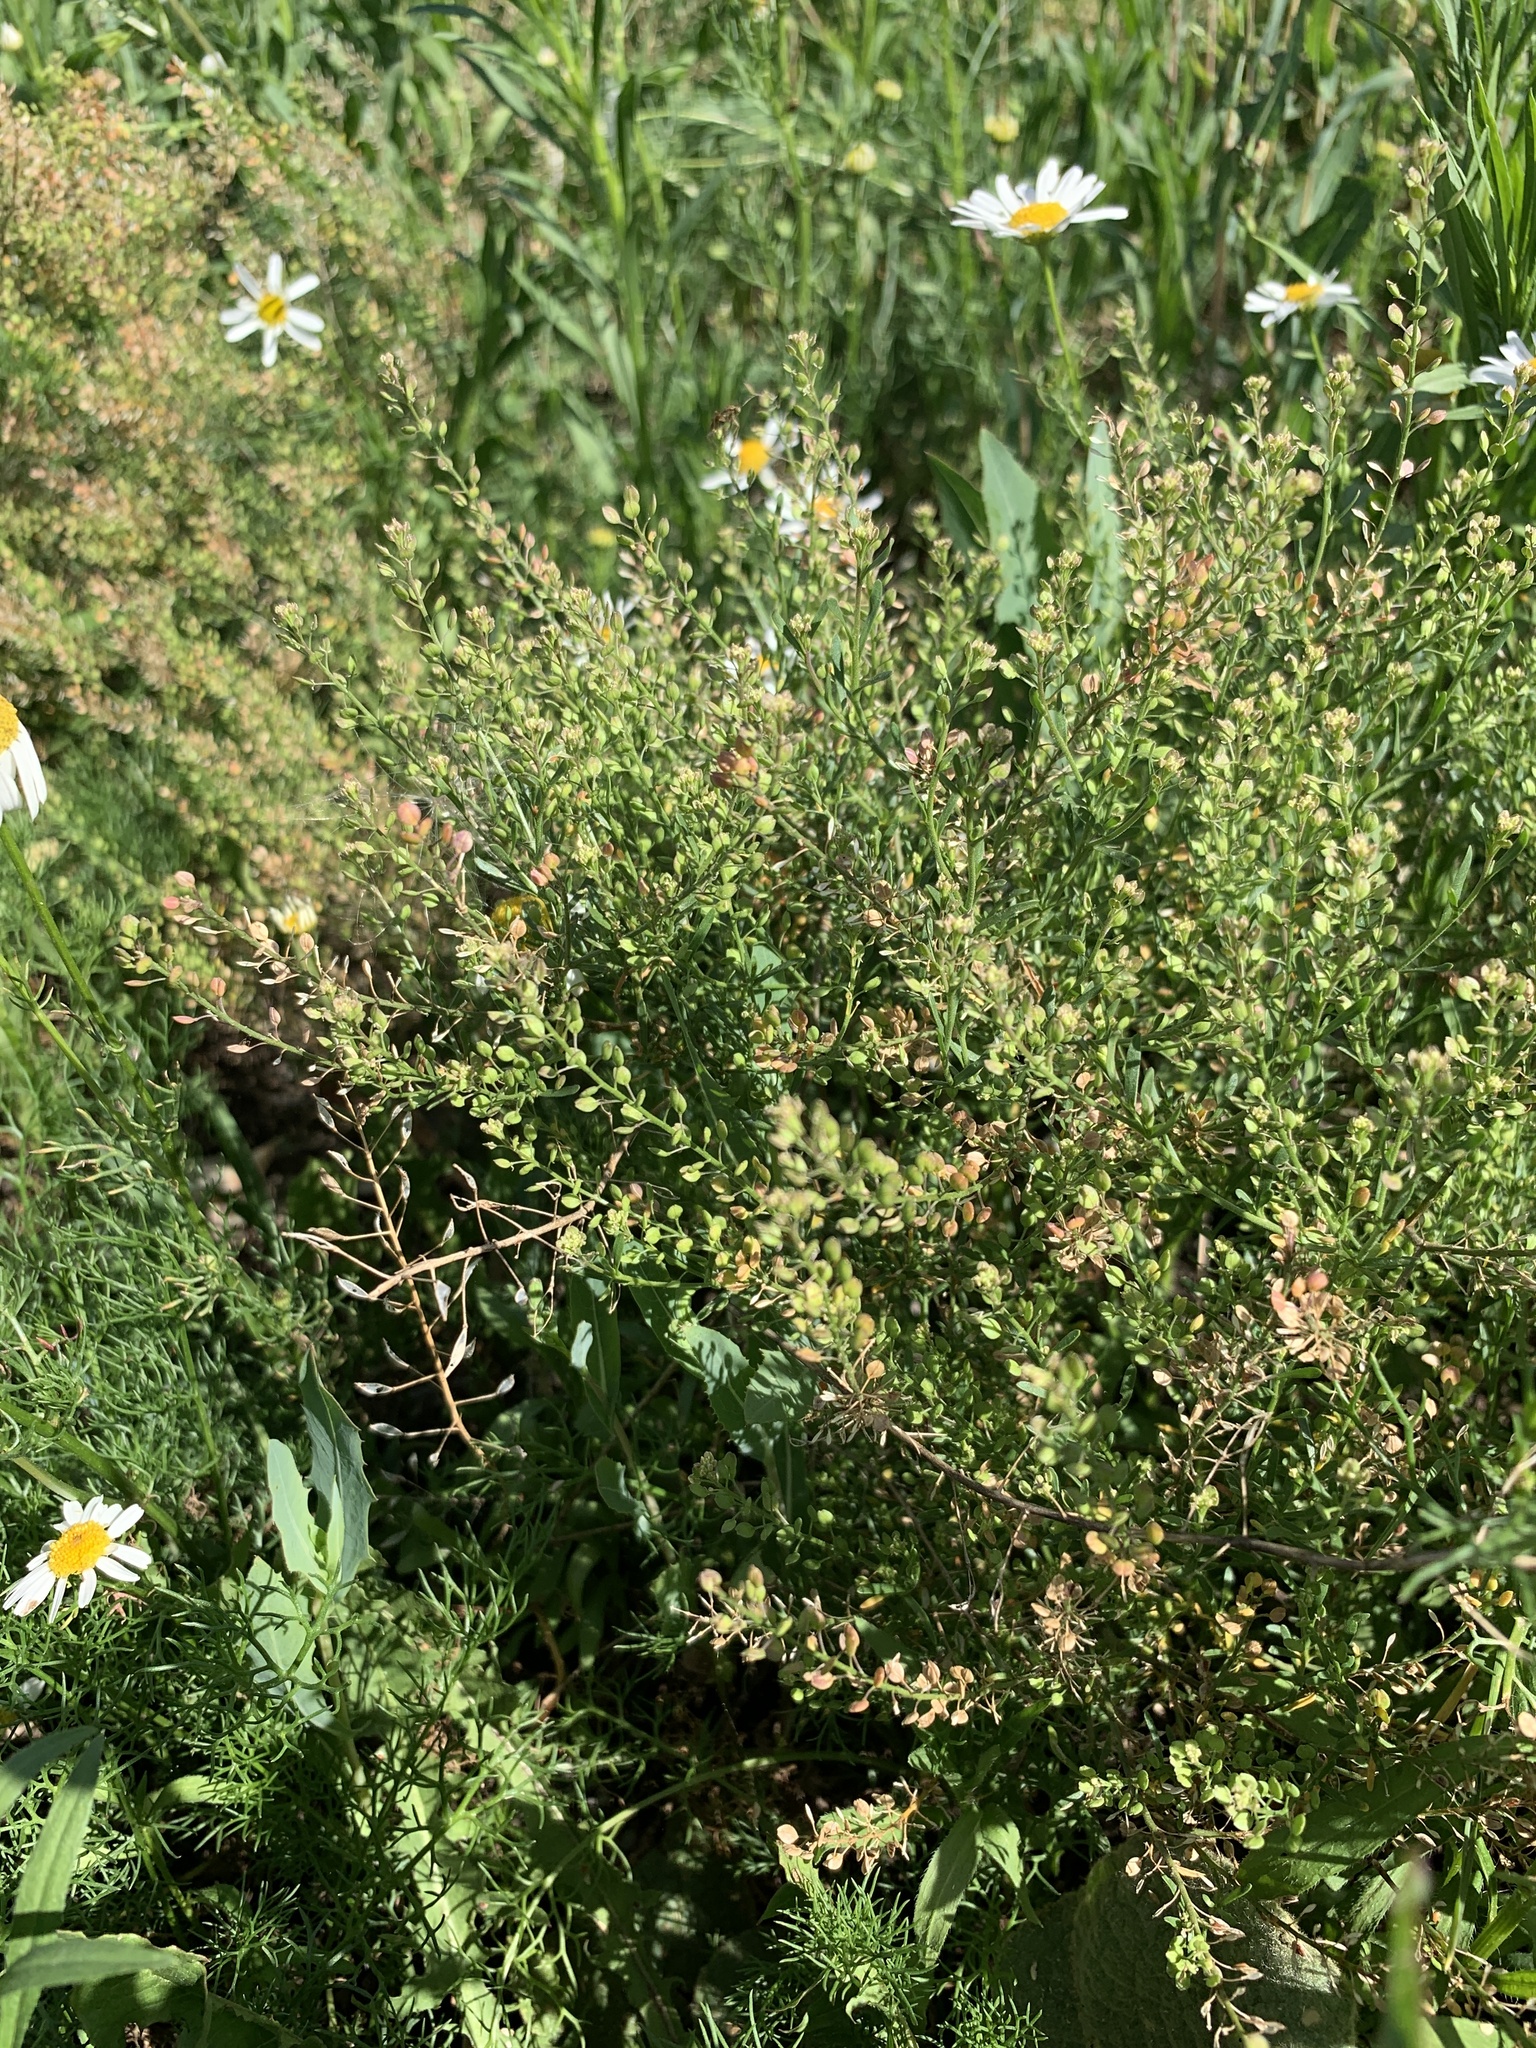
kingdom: Plantae
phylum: Tracheophyta
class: Magnoliopsida
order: Brassicales
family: Brassicaceae
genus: Lepidium
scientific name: Lepidium ruderale
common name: Narrow-leaved pepperwort
